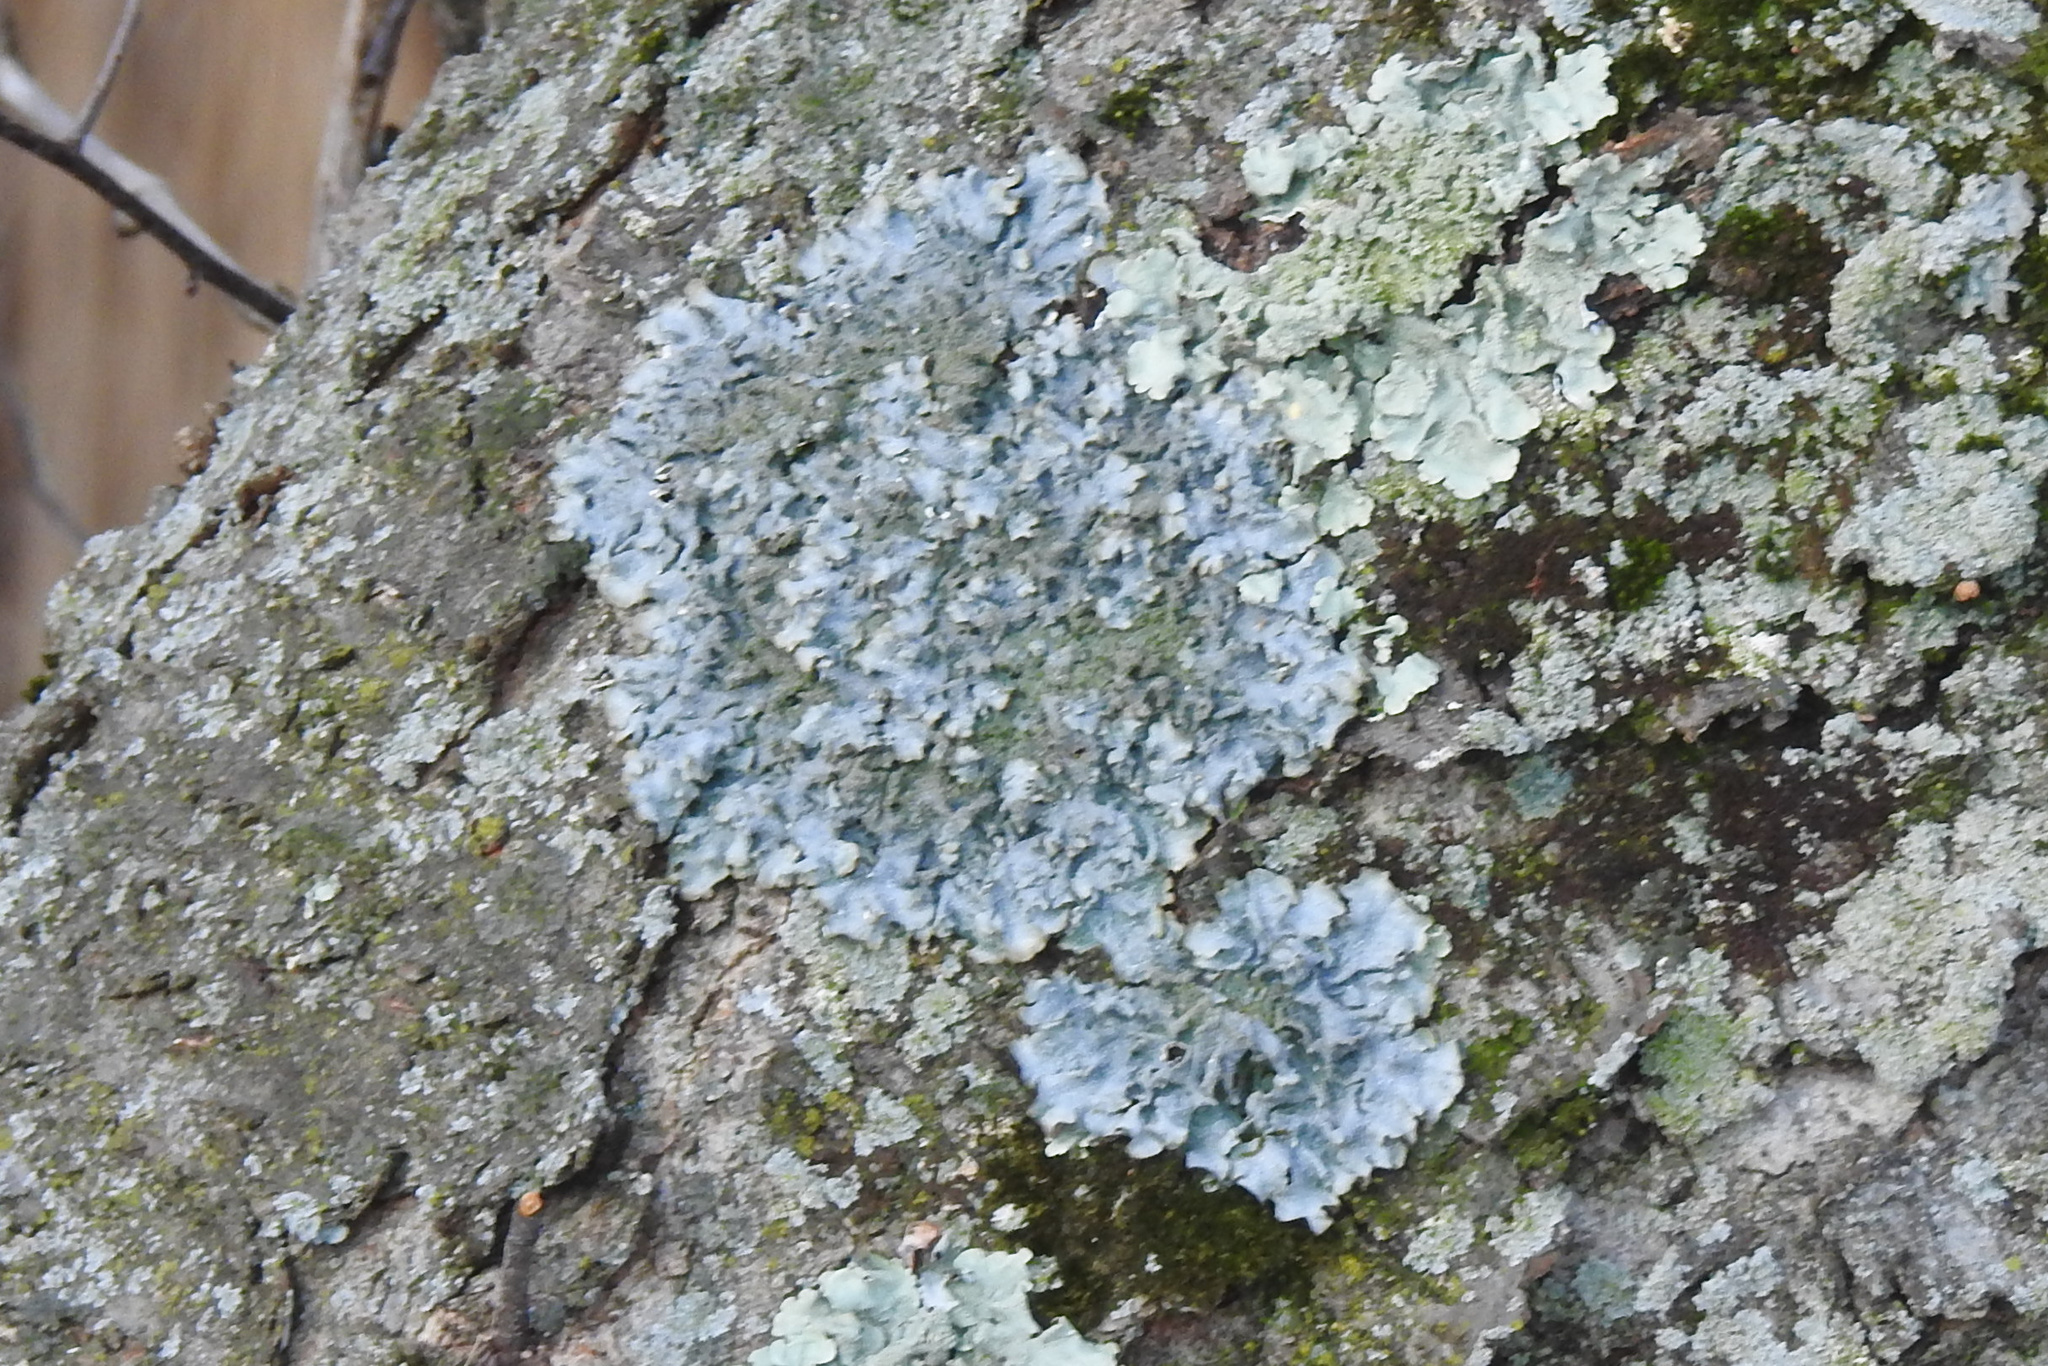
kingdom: Fungi
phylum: Ascomycota
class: Lecanoromycetes
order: Lecanorales
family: Parmeliaceae
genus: Punctelia
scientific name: Punctelia rudecta
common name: Rough speckled shield lichen
